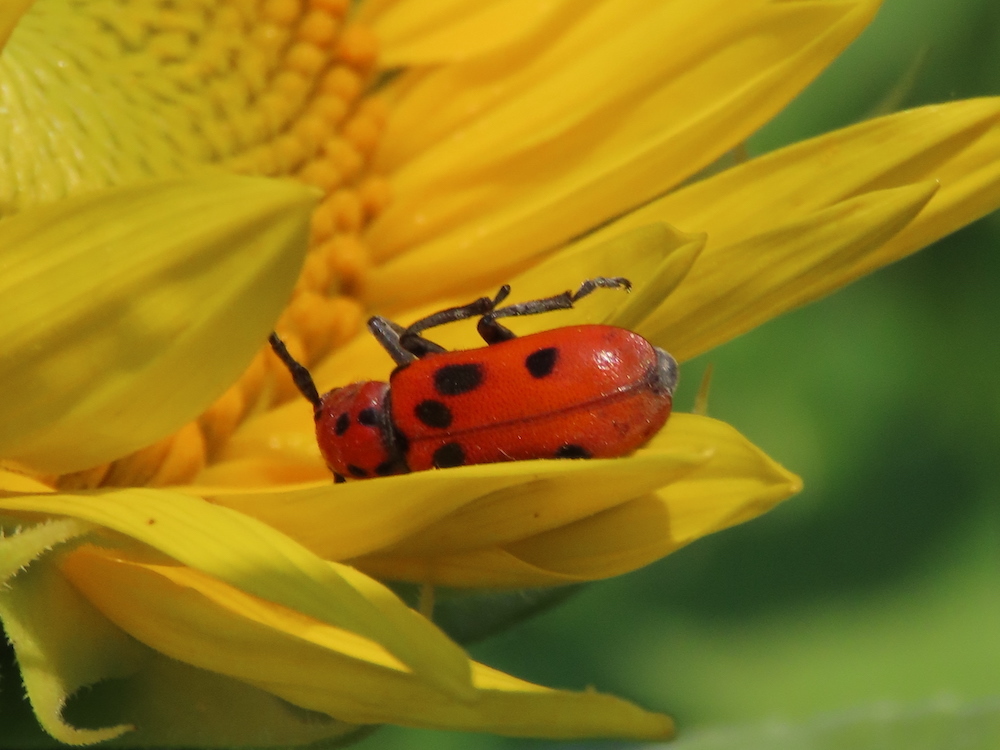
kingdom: Animalia
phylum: Arthropoda
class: Insecta
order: Coleoptera
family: Cerambycidae
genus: Tetraopes
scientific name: Tetraopes tetrophthalmus
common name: Red milkweed beetle
